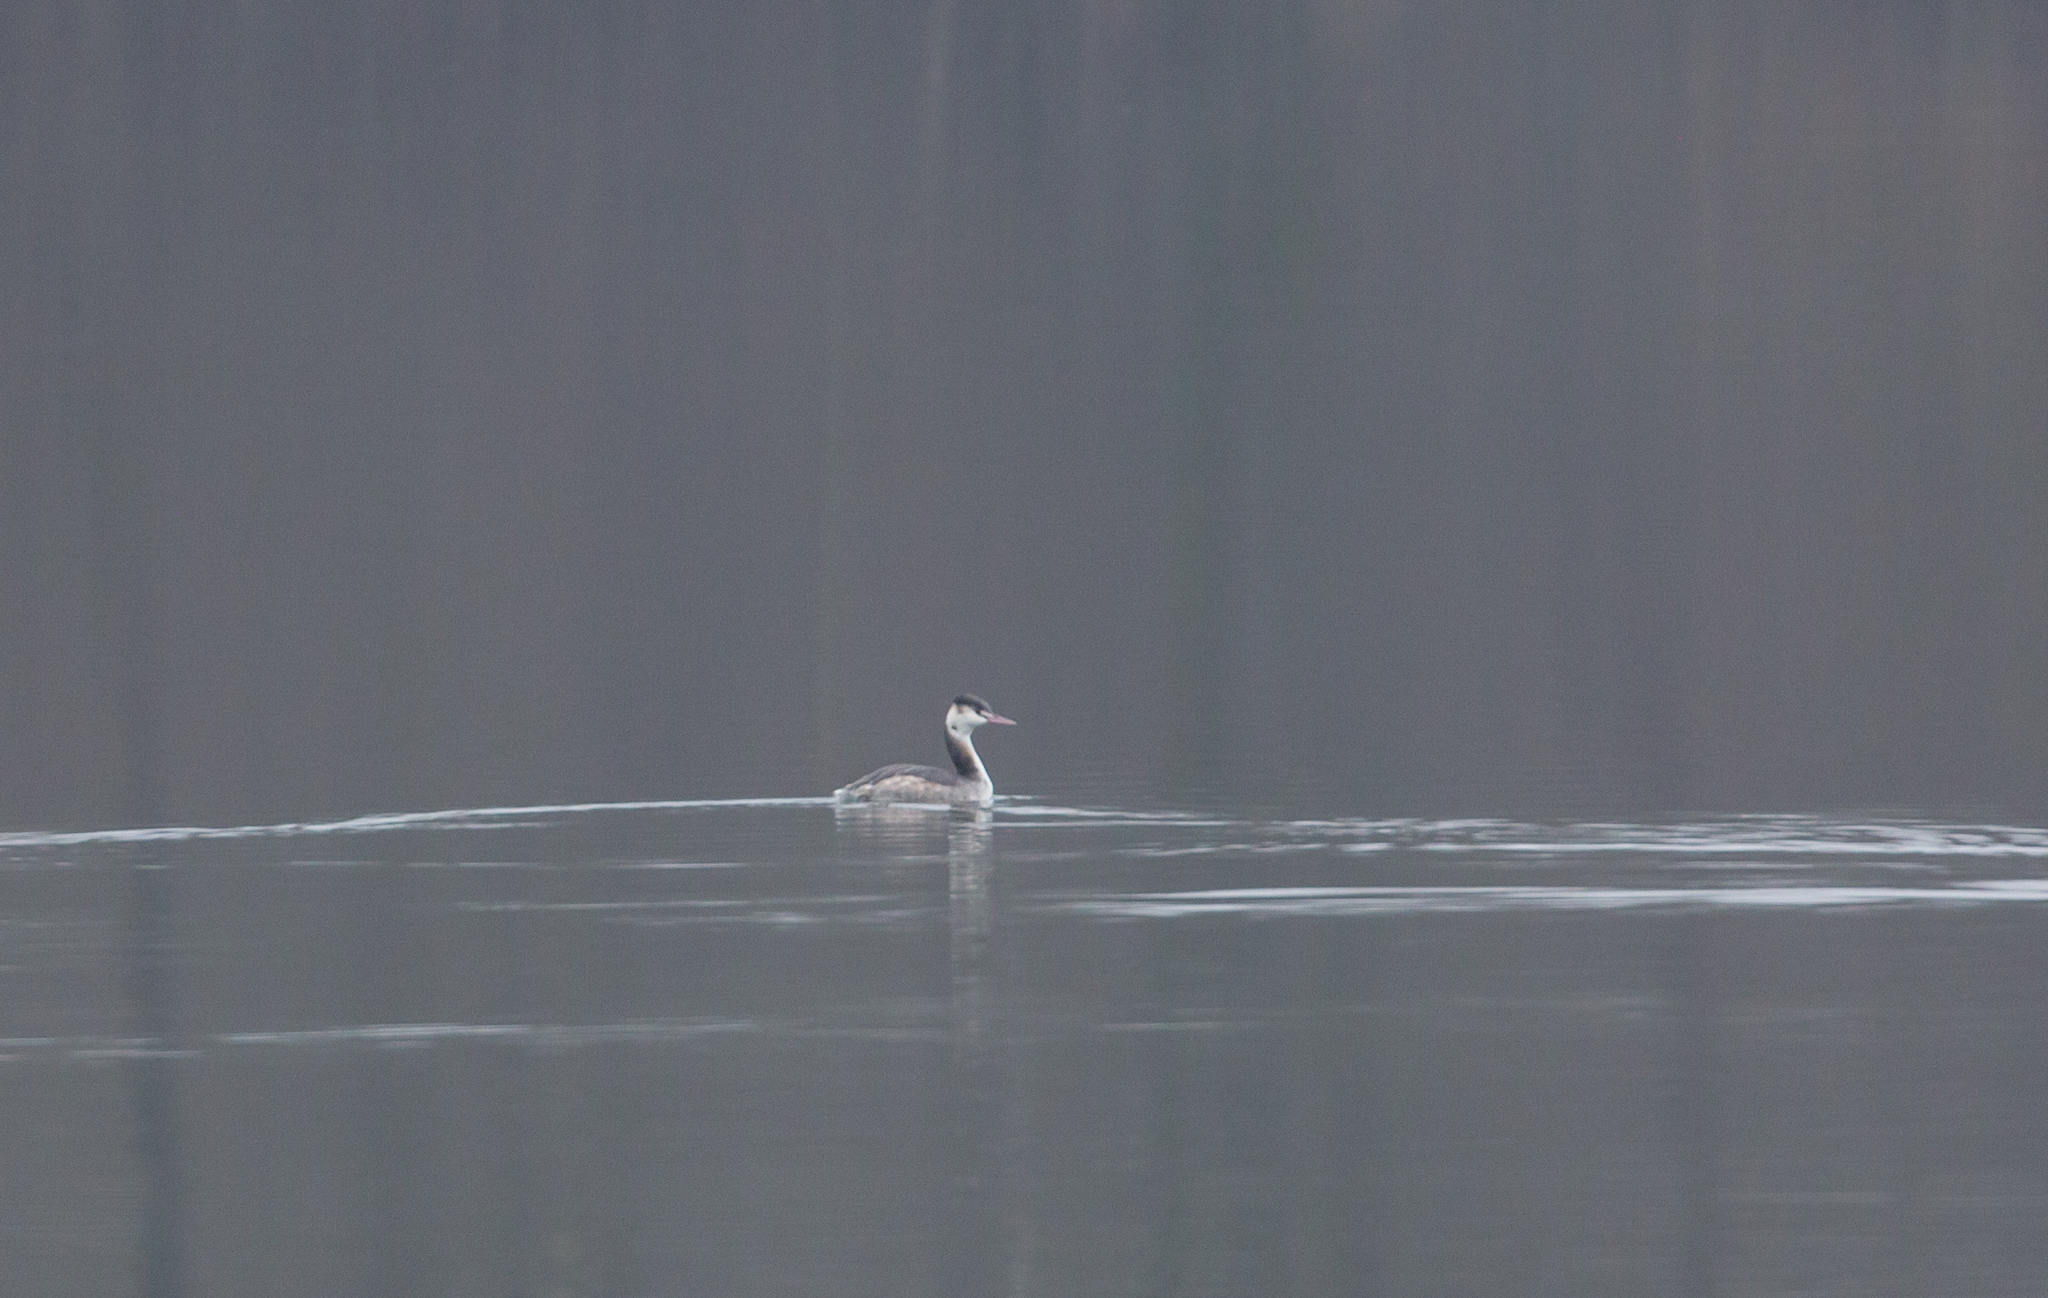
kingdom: Animalia
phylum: Chordata
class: Aves
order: Podicipediformes
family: Podicipedidae
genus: Podiceps
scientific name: Podiceps cristatus
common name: Great crested grebe
